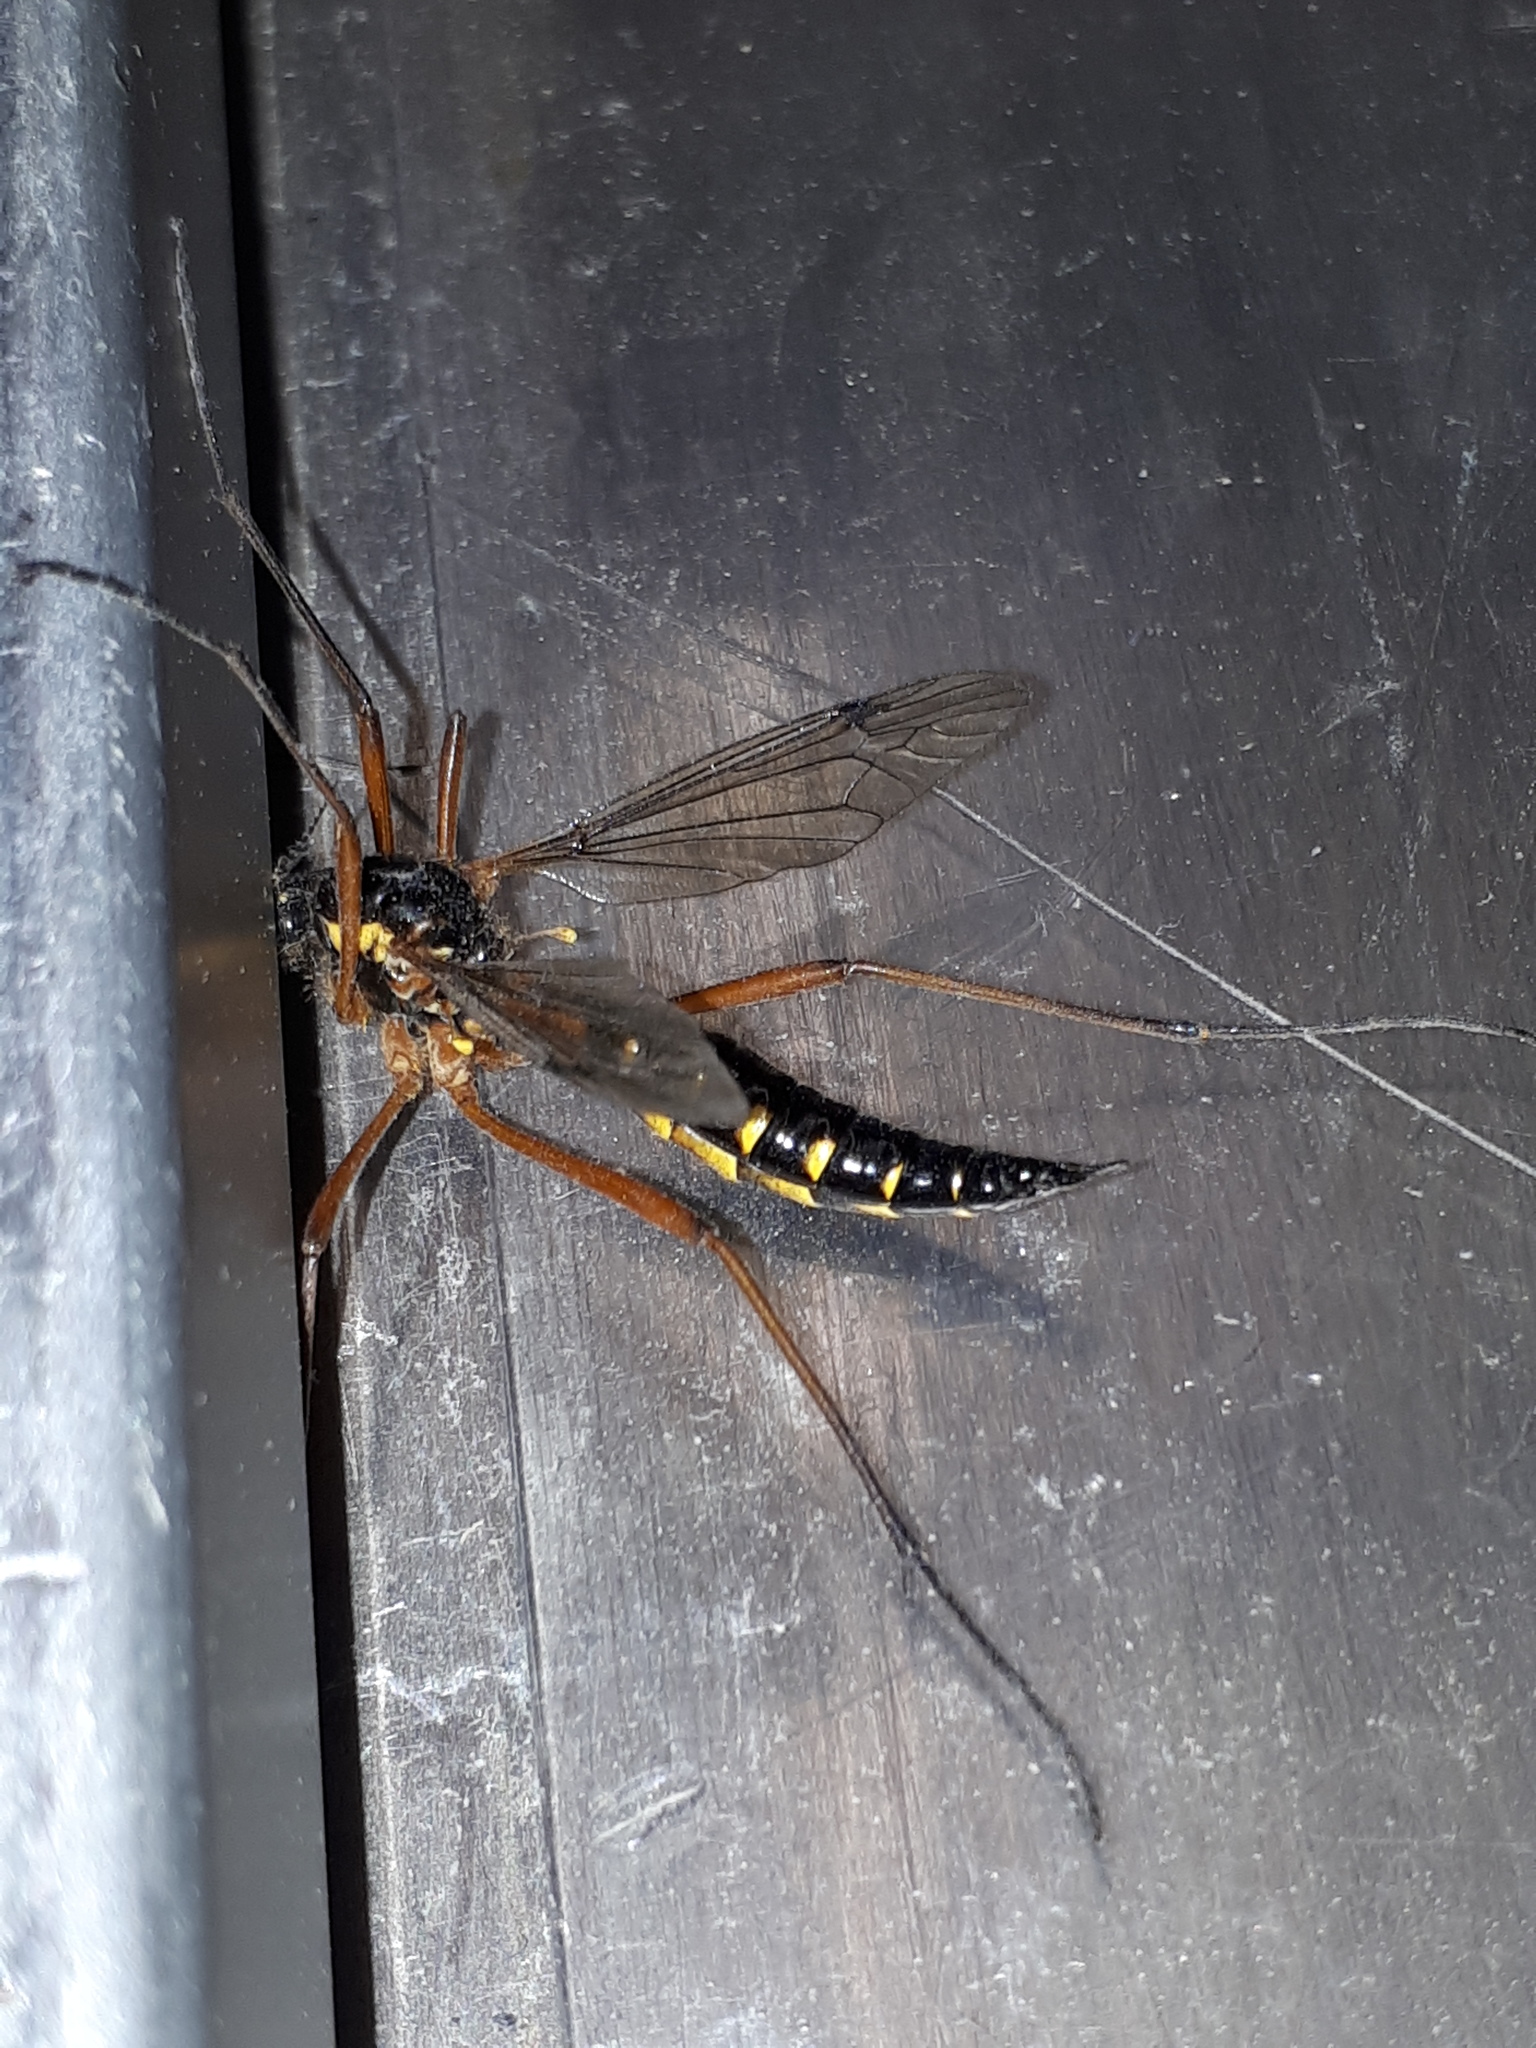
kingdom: Animalia
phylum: Arthropoda
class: Insecta
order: Diptera
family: Tipulidae
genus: Ctenophora
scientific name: Ctenophora pectinicornis
